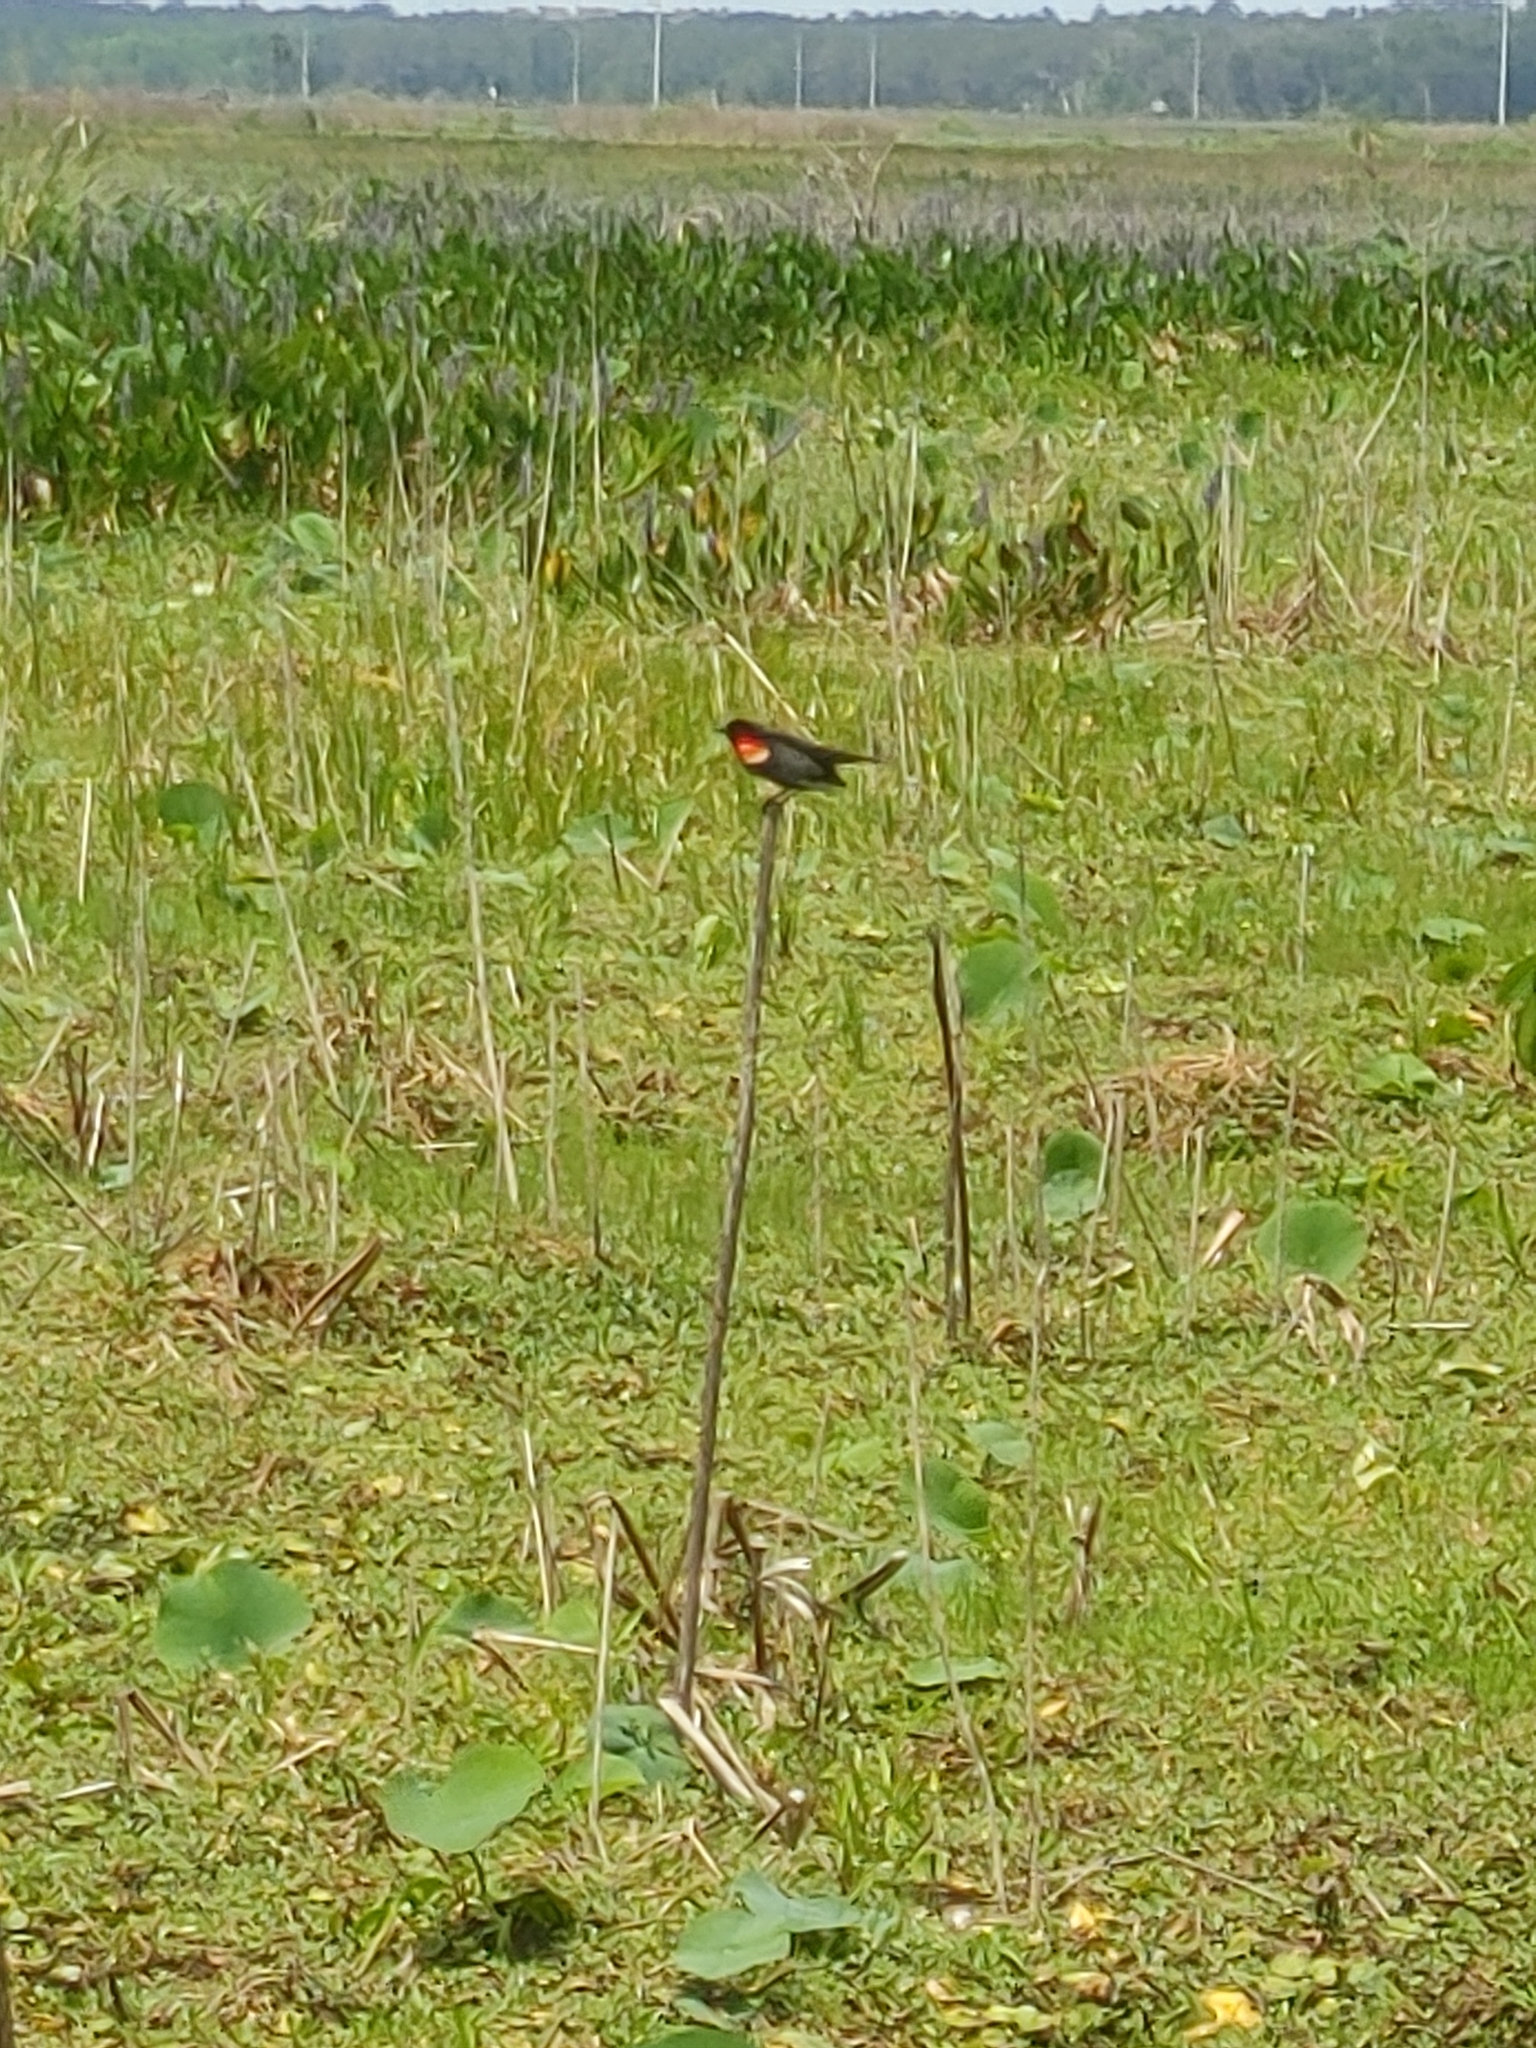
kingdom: Animalia
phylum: Chordata
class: Aves
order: Passeriformes
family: Icteridae
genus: Agelaius
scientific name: Agelaius phoeniceus
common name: Red-winged blackbird
